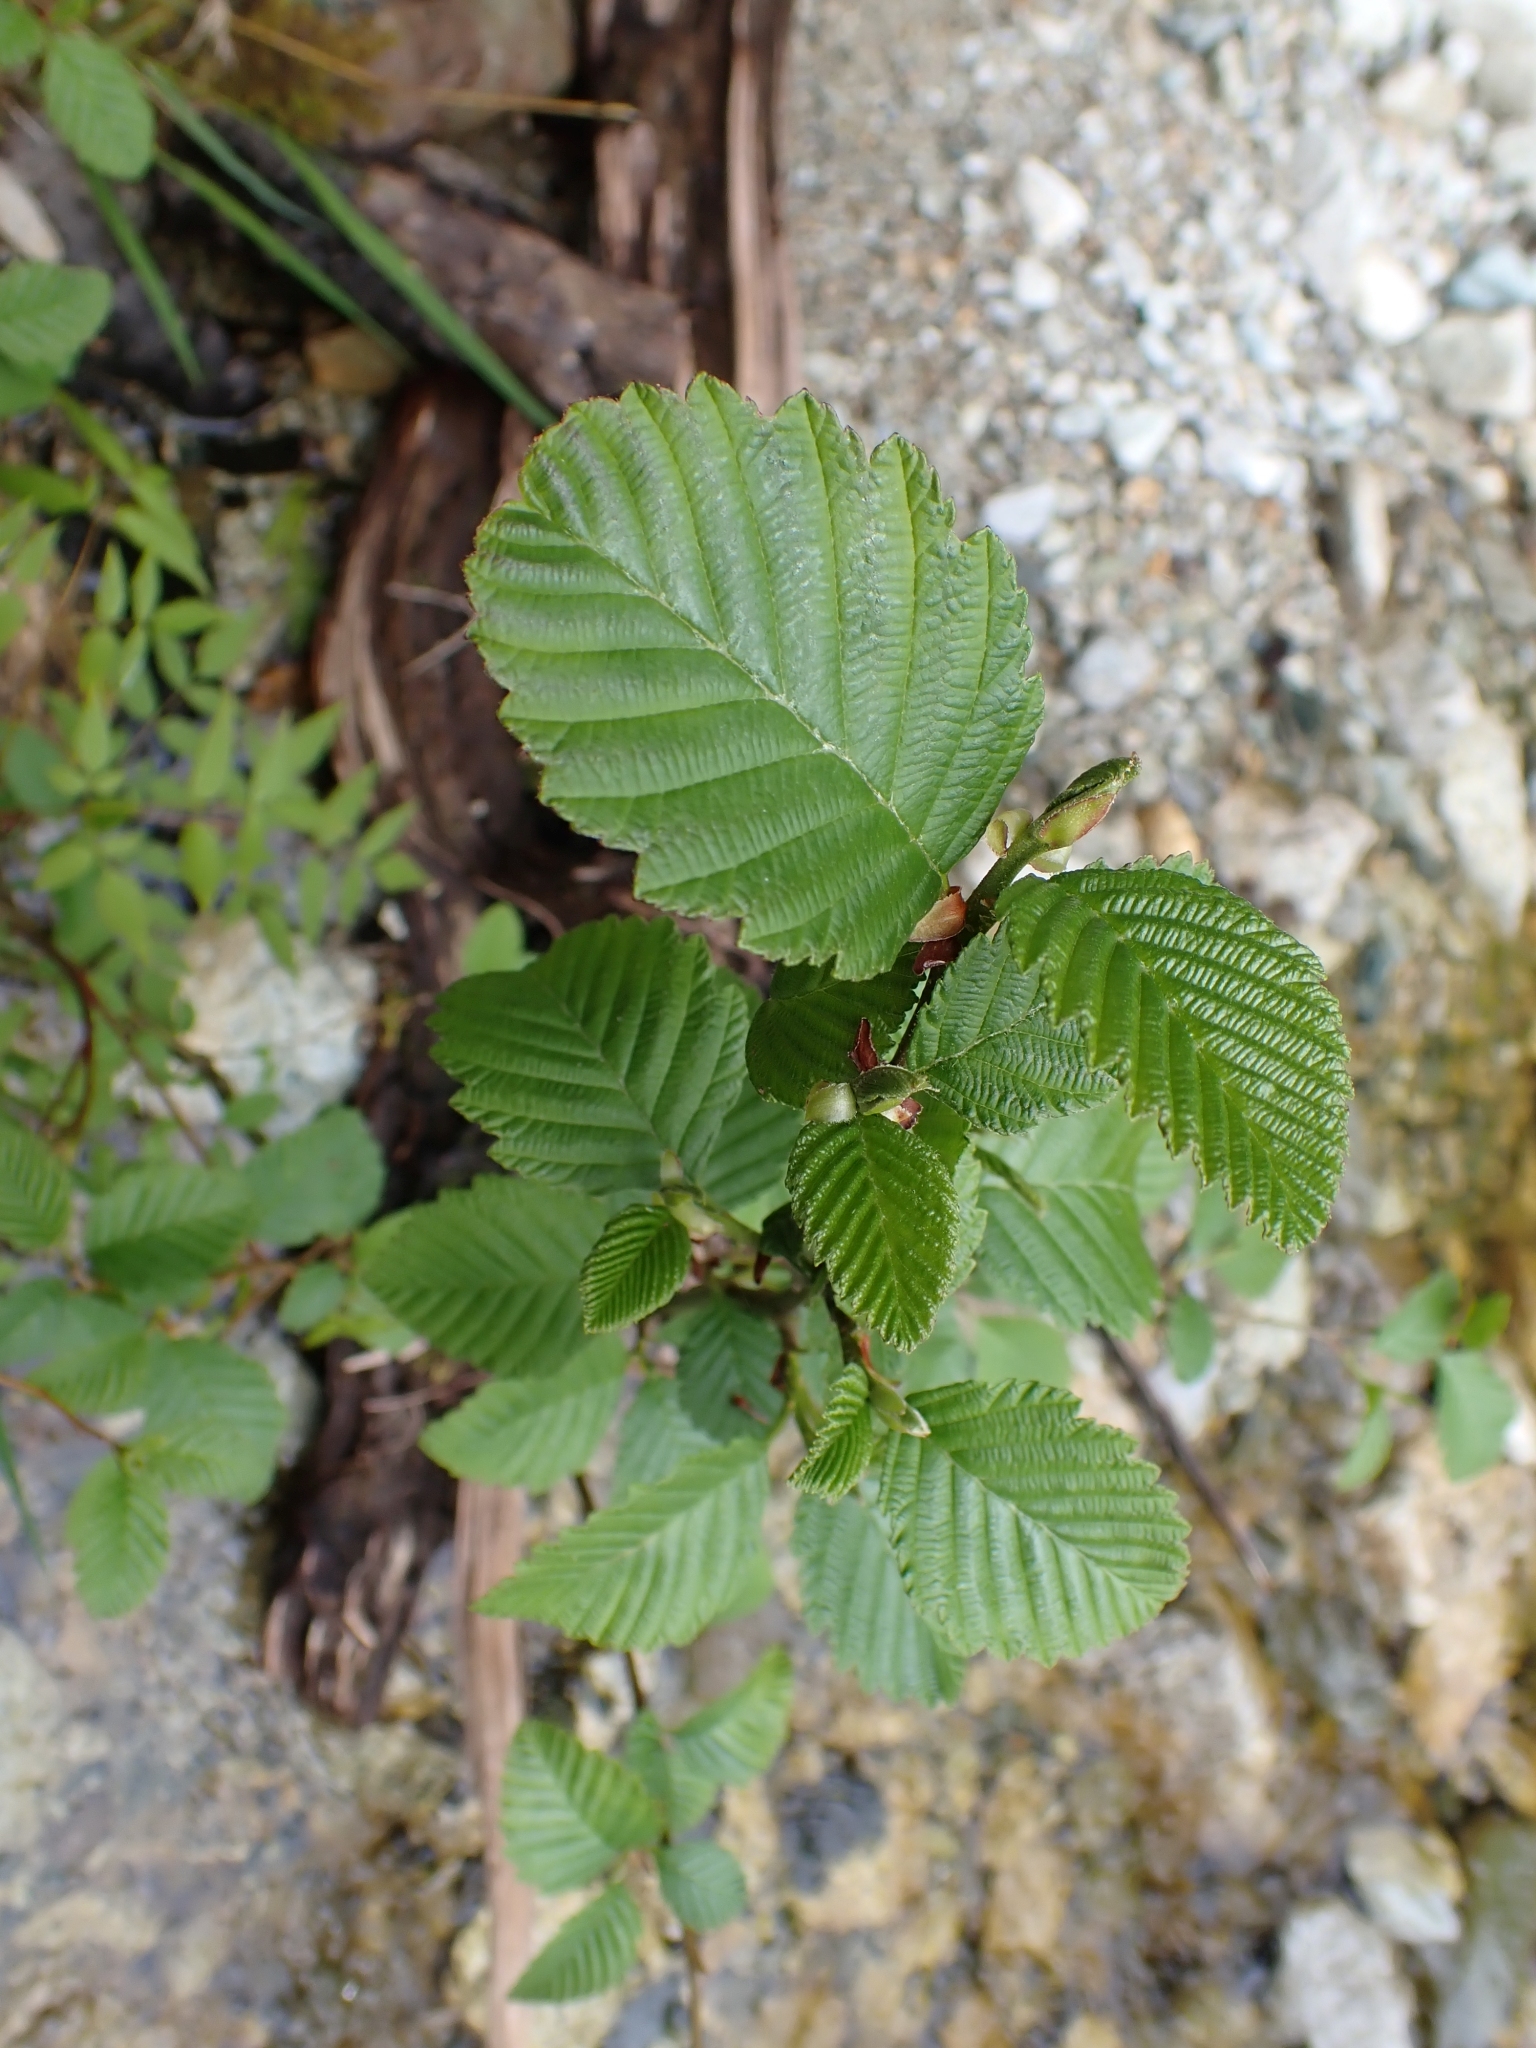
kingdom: Plantae
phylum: Tracheophyta
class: Magnoliopsida
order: Fagales
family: Betulaceae
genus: Alnus
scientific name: Alnus rubra
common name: Red alder
